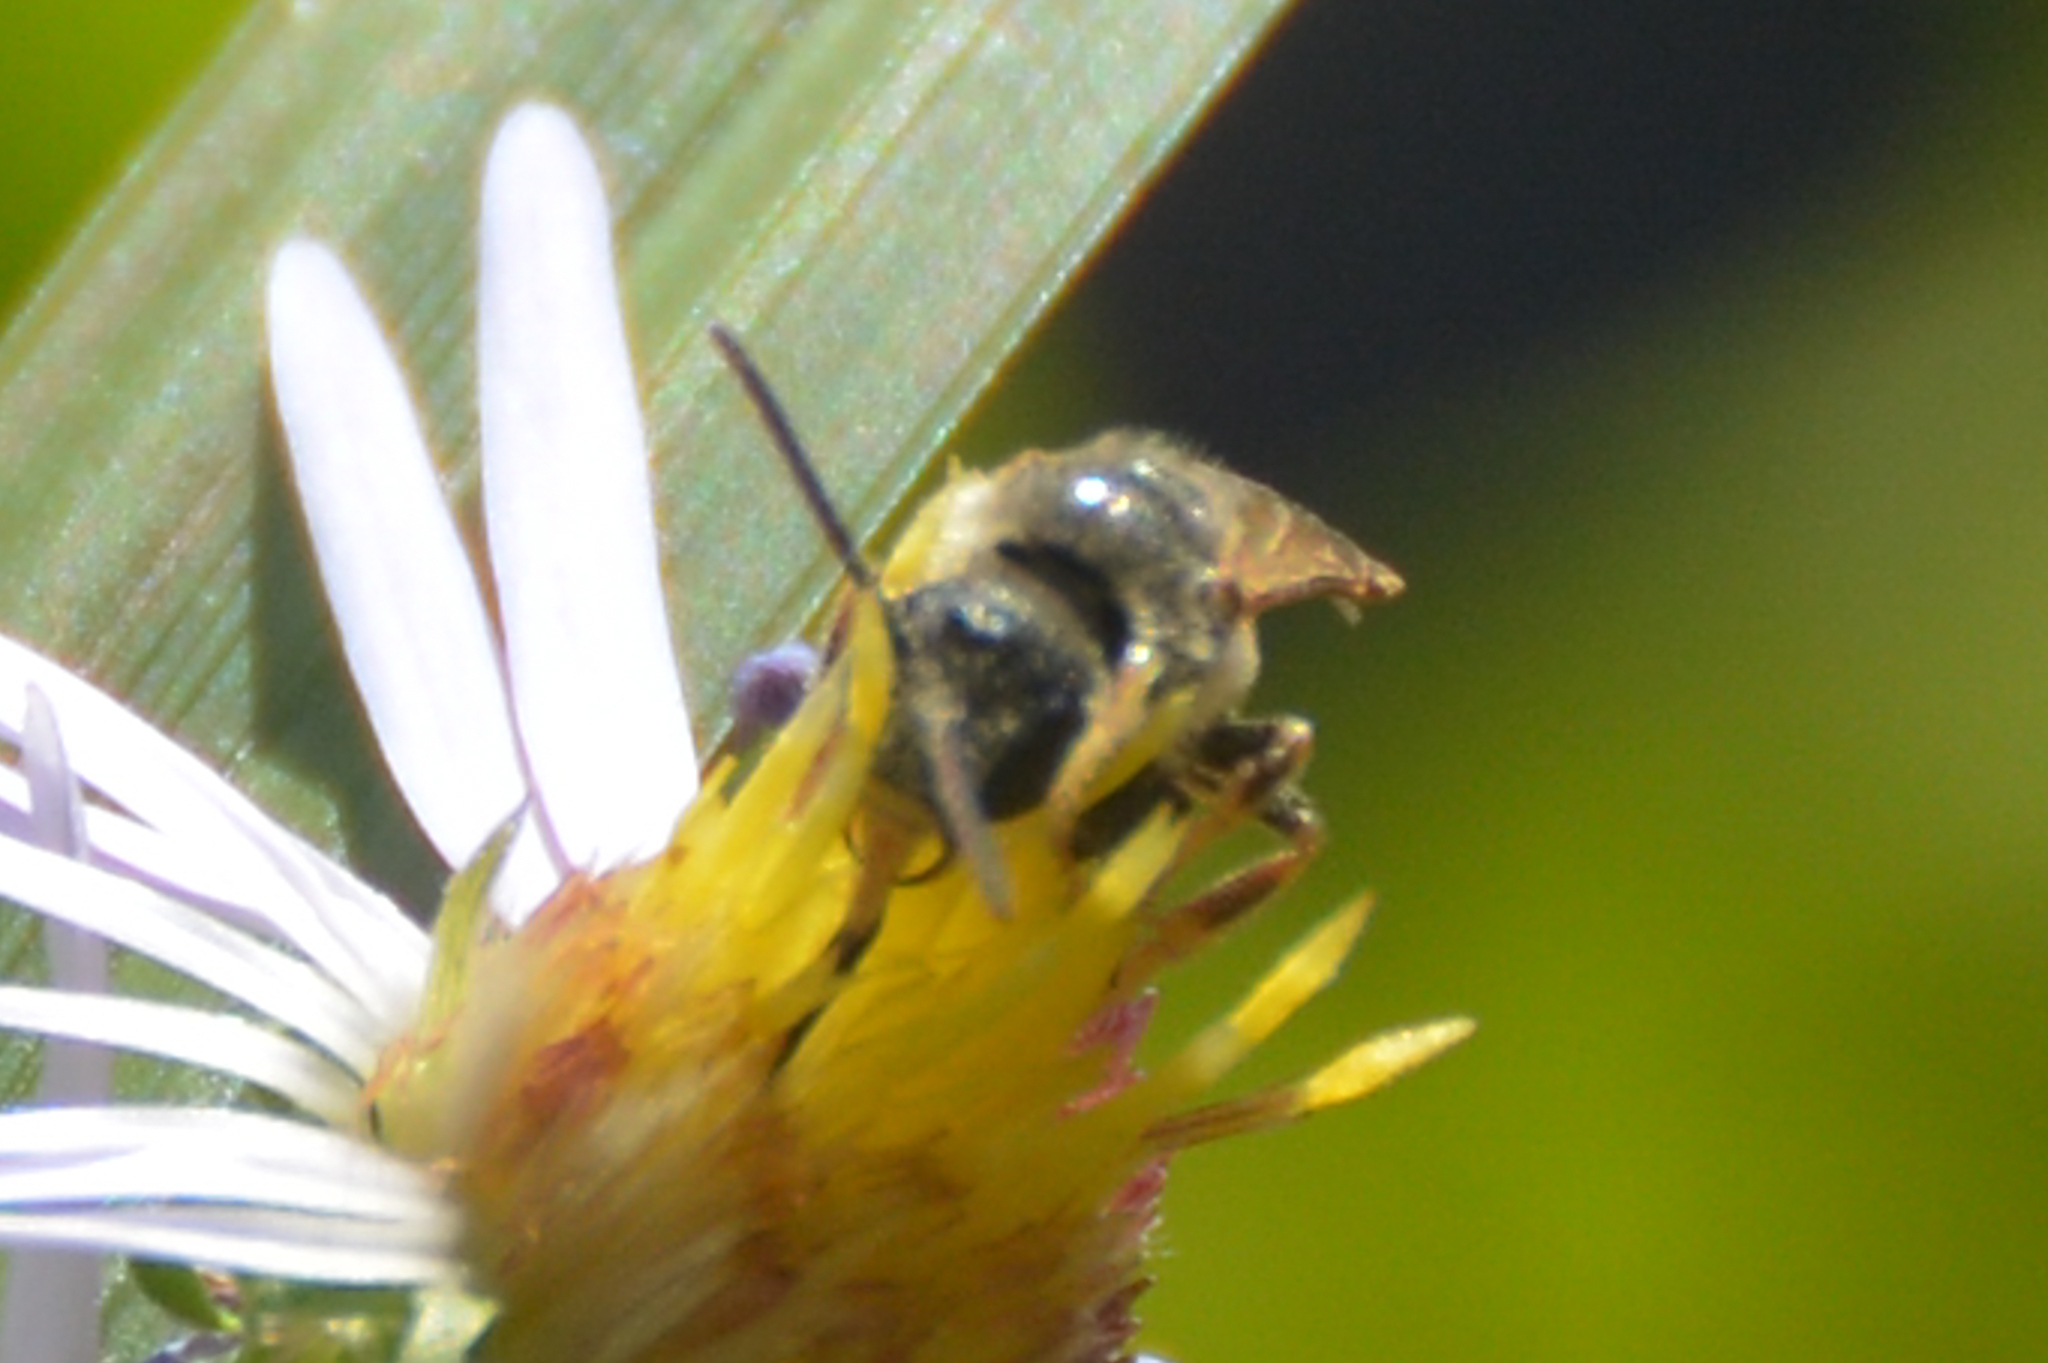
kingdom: Animalia
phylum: Arthropoda
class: Insecta
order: Hymenoptera
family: Halictidae
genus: Halictus
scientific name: Halictus ligatus
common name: Ligated furrow bee
